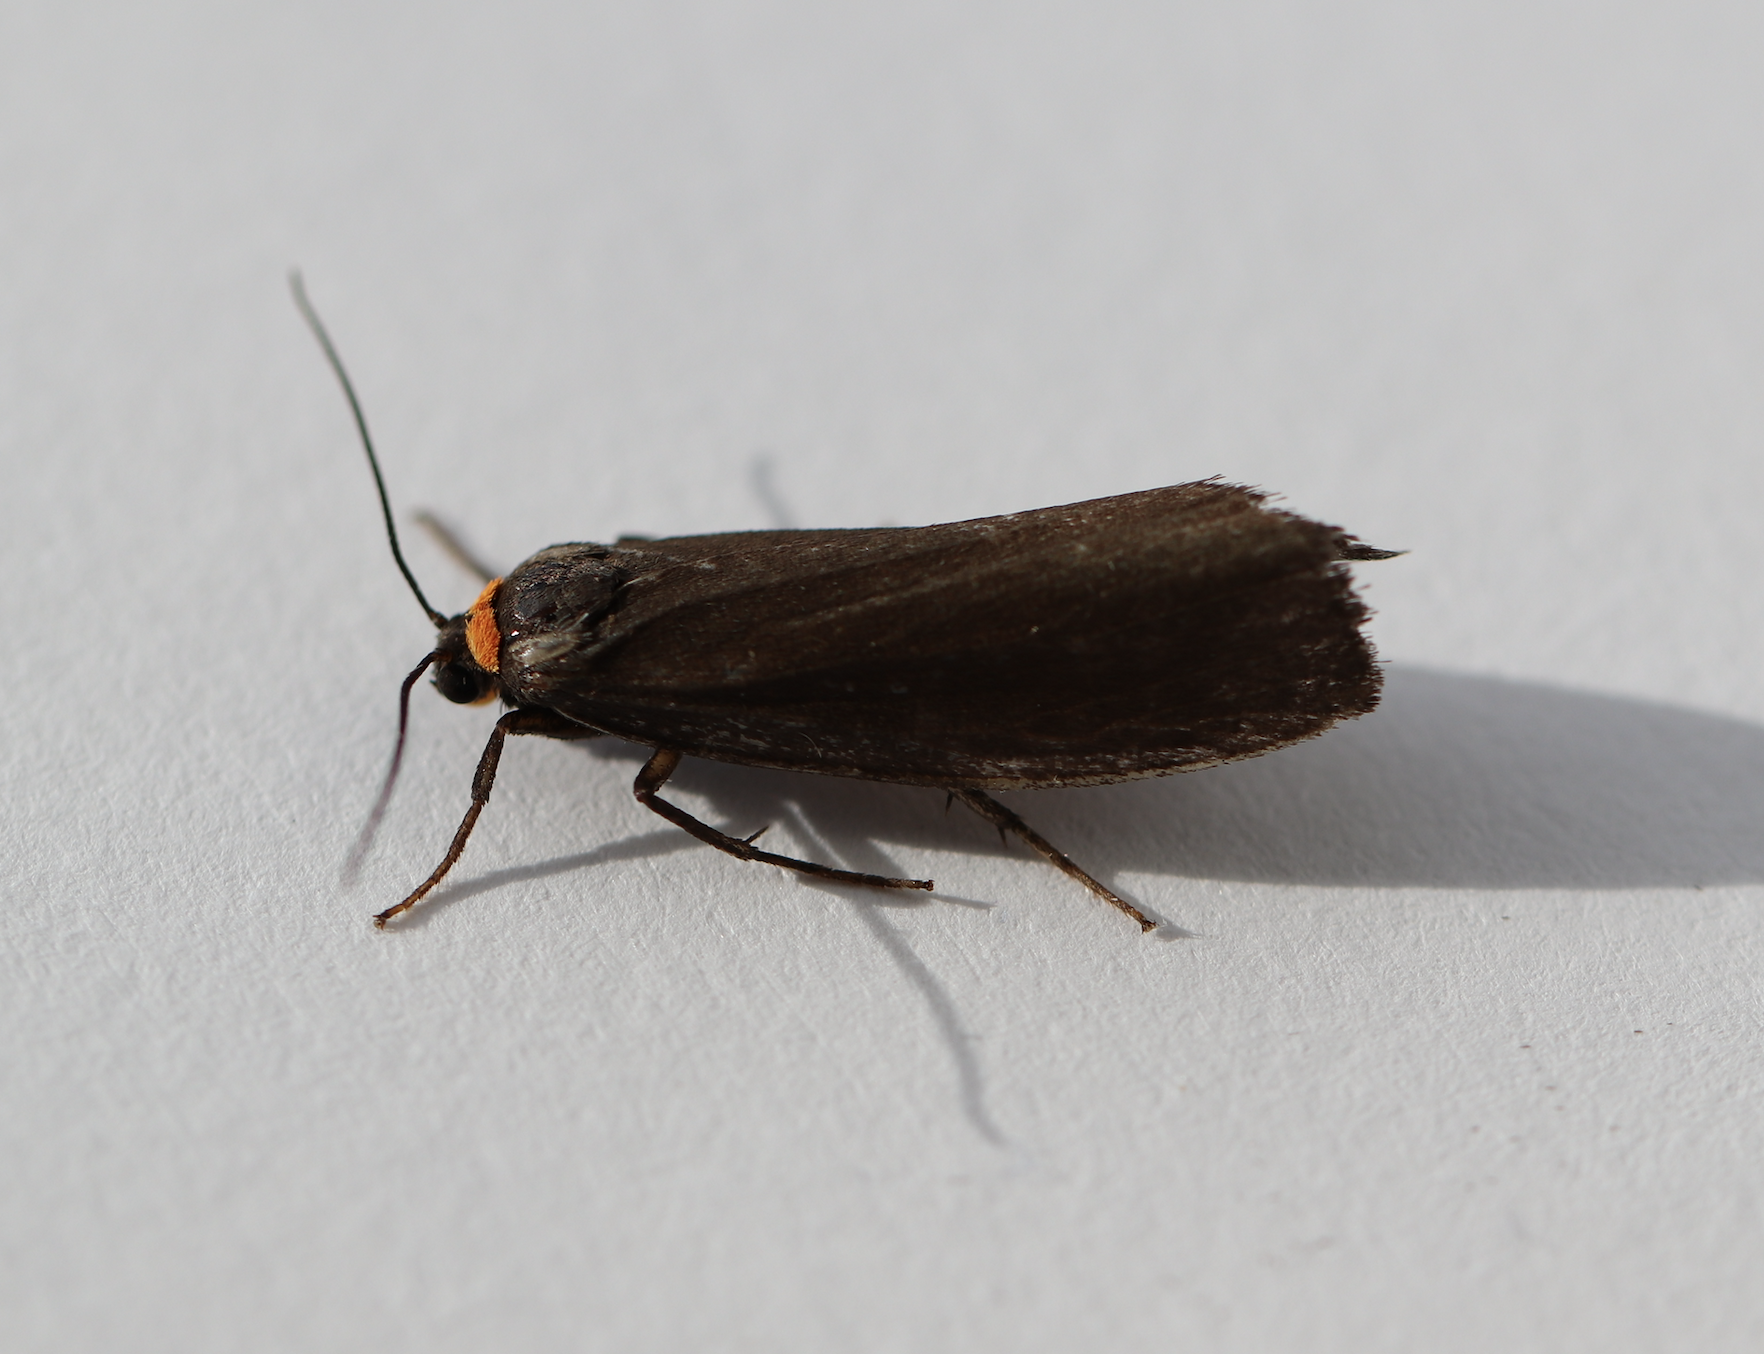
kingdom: Animalia
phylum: Arthropoda
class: Insecta
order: Lepidoptera
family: Erebidae
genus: Atolmis
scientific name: Atolmis rubricollis
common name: Red-necked footman
